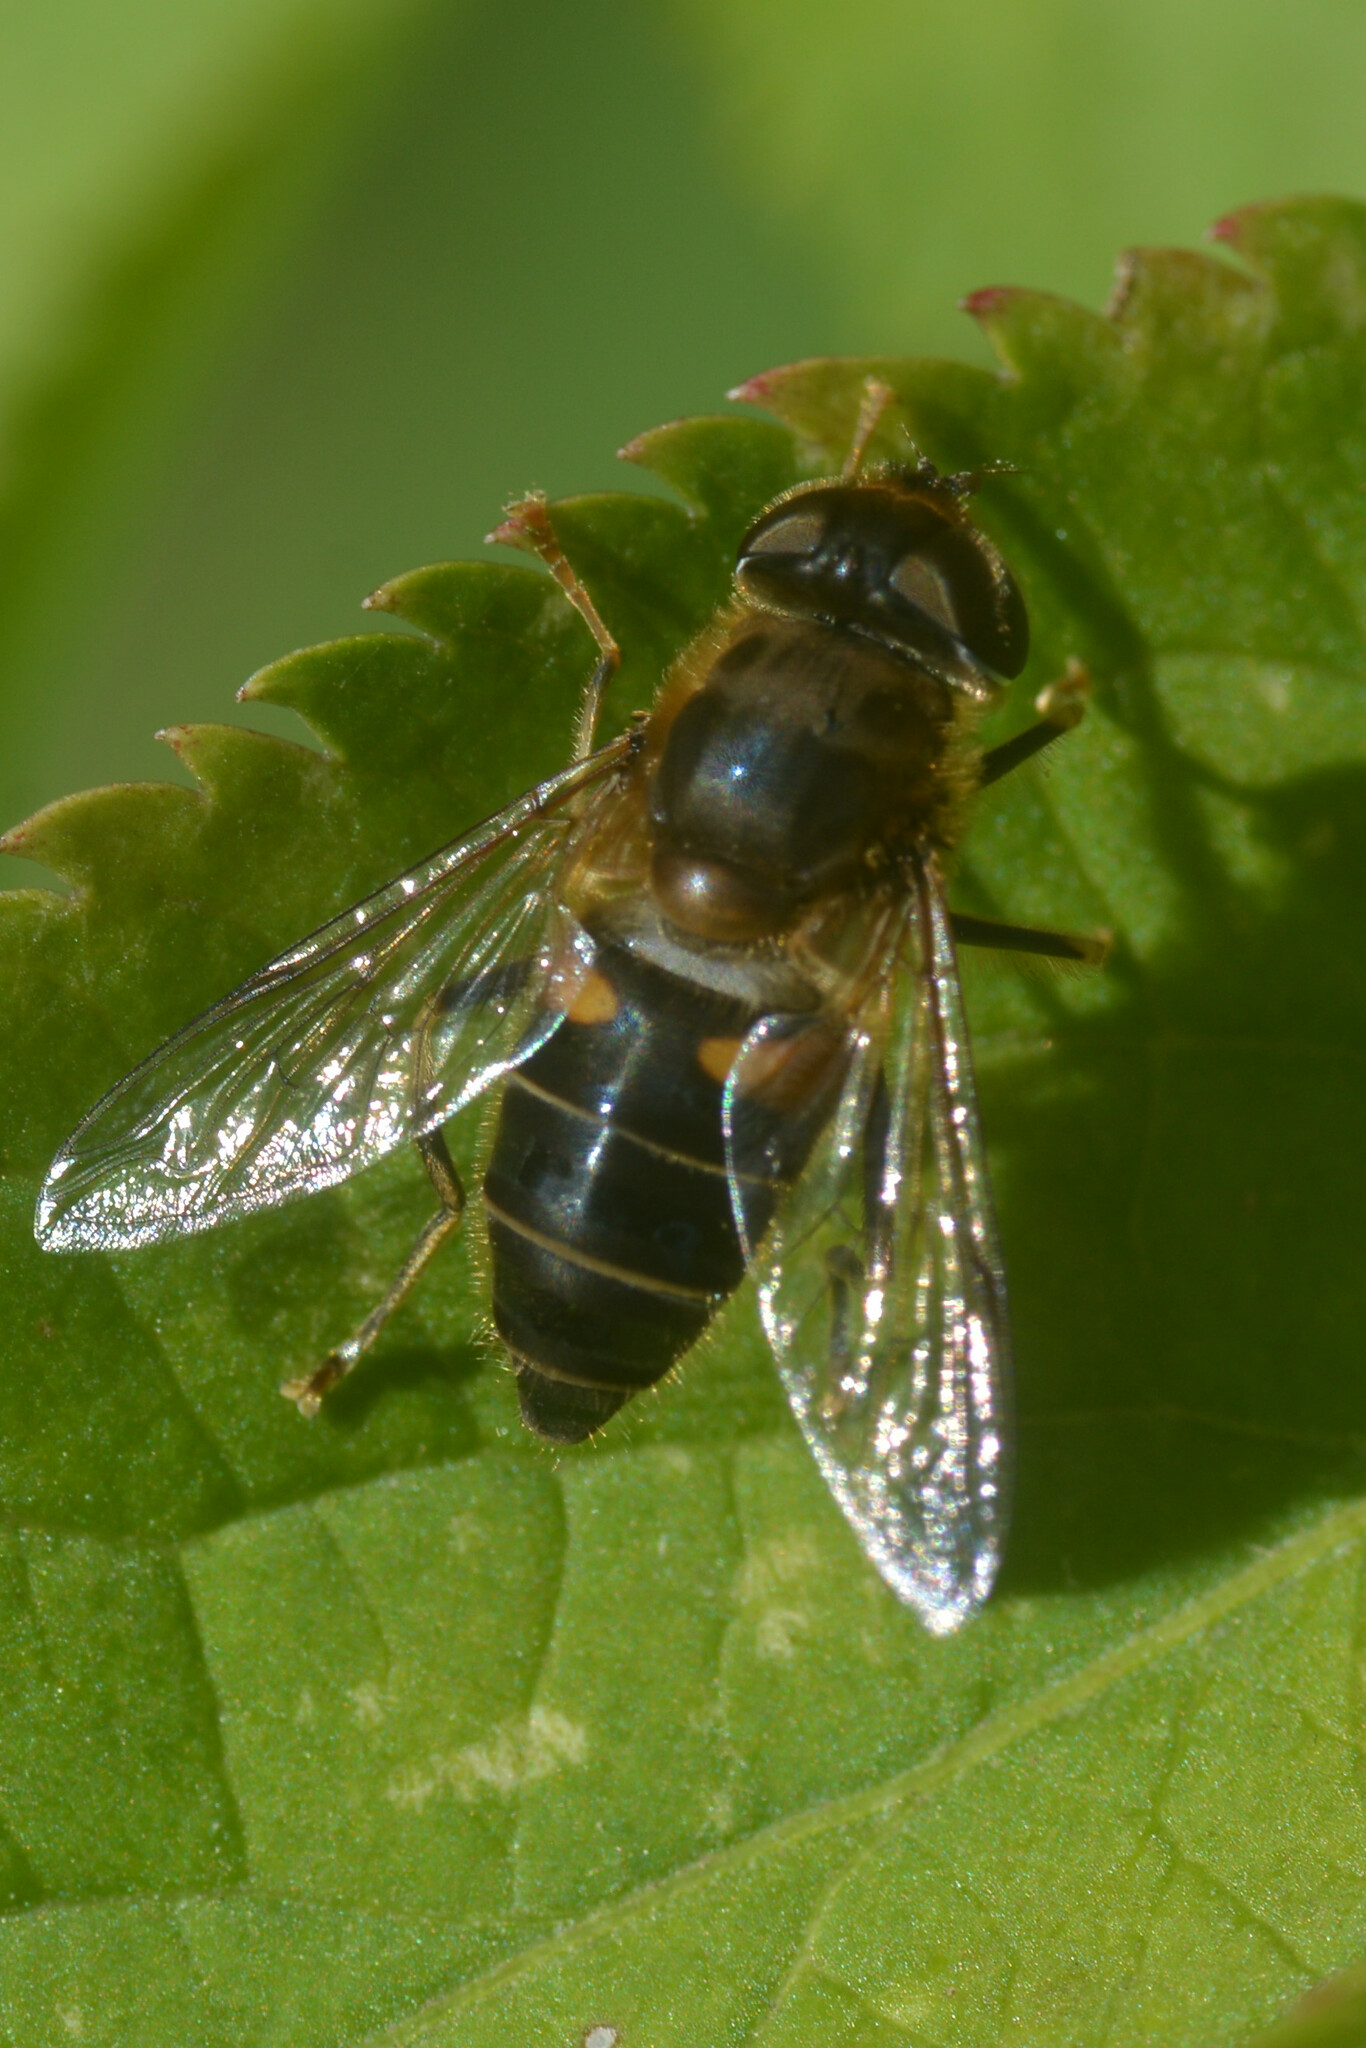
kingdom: Animalia
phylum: Arthropoda
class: Insecta
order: Diptera
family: Syrphidae
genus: Eristalis
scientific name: Eristalis pertinax
